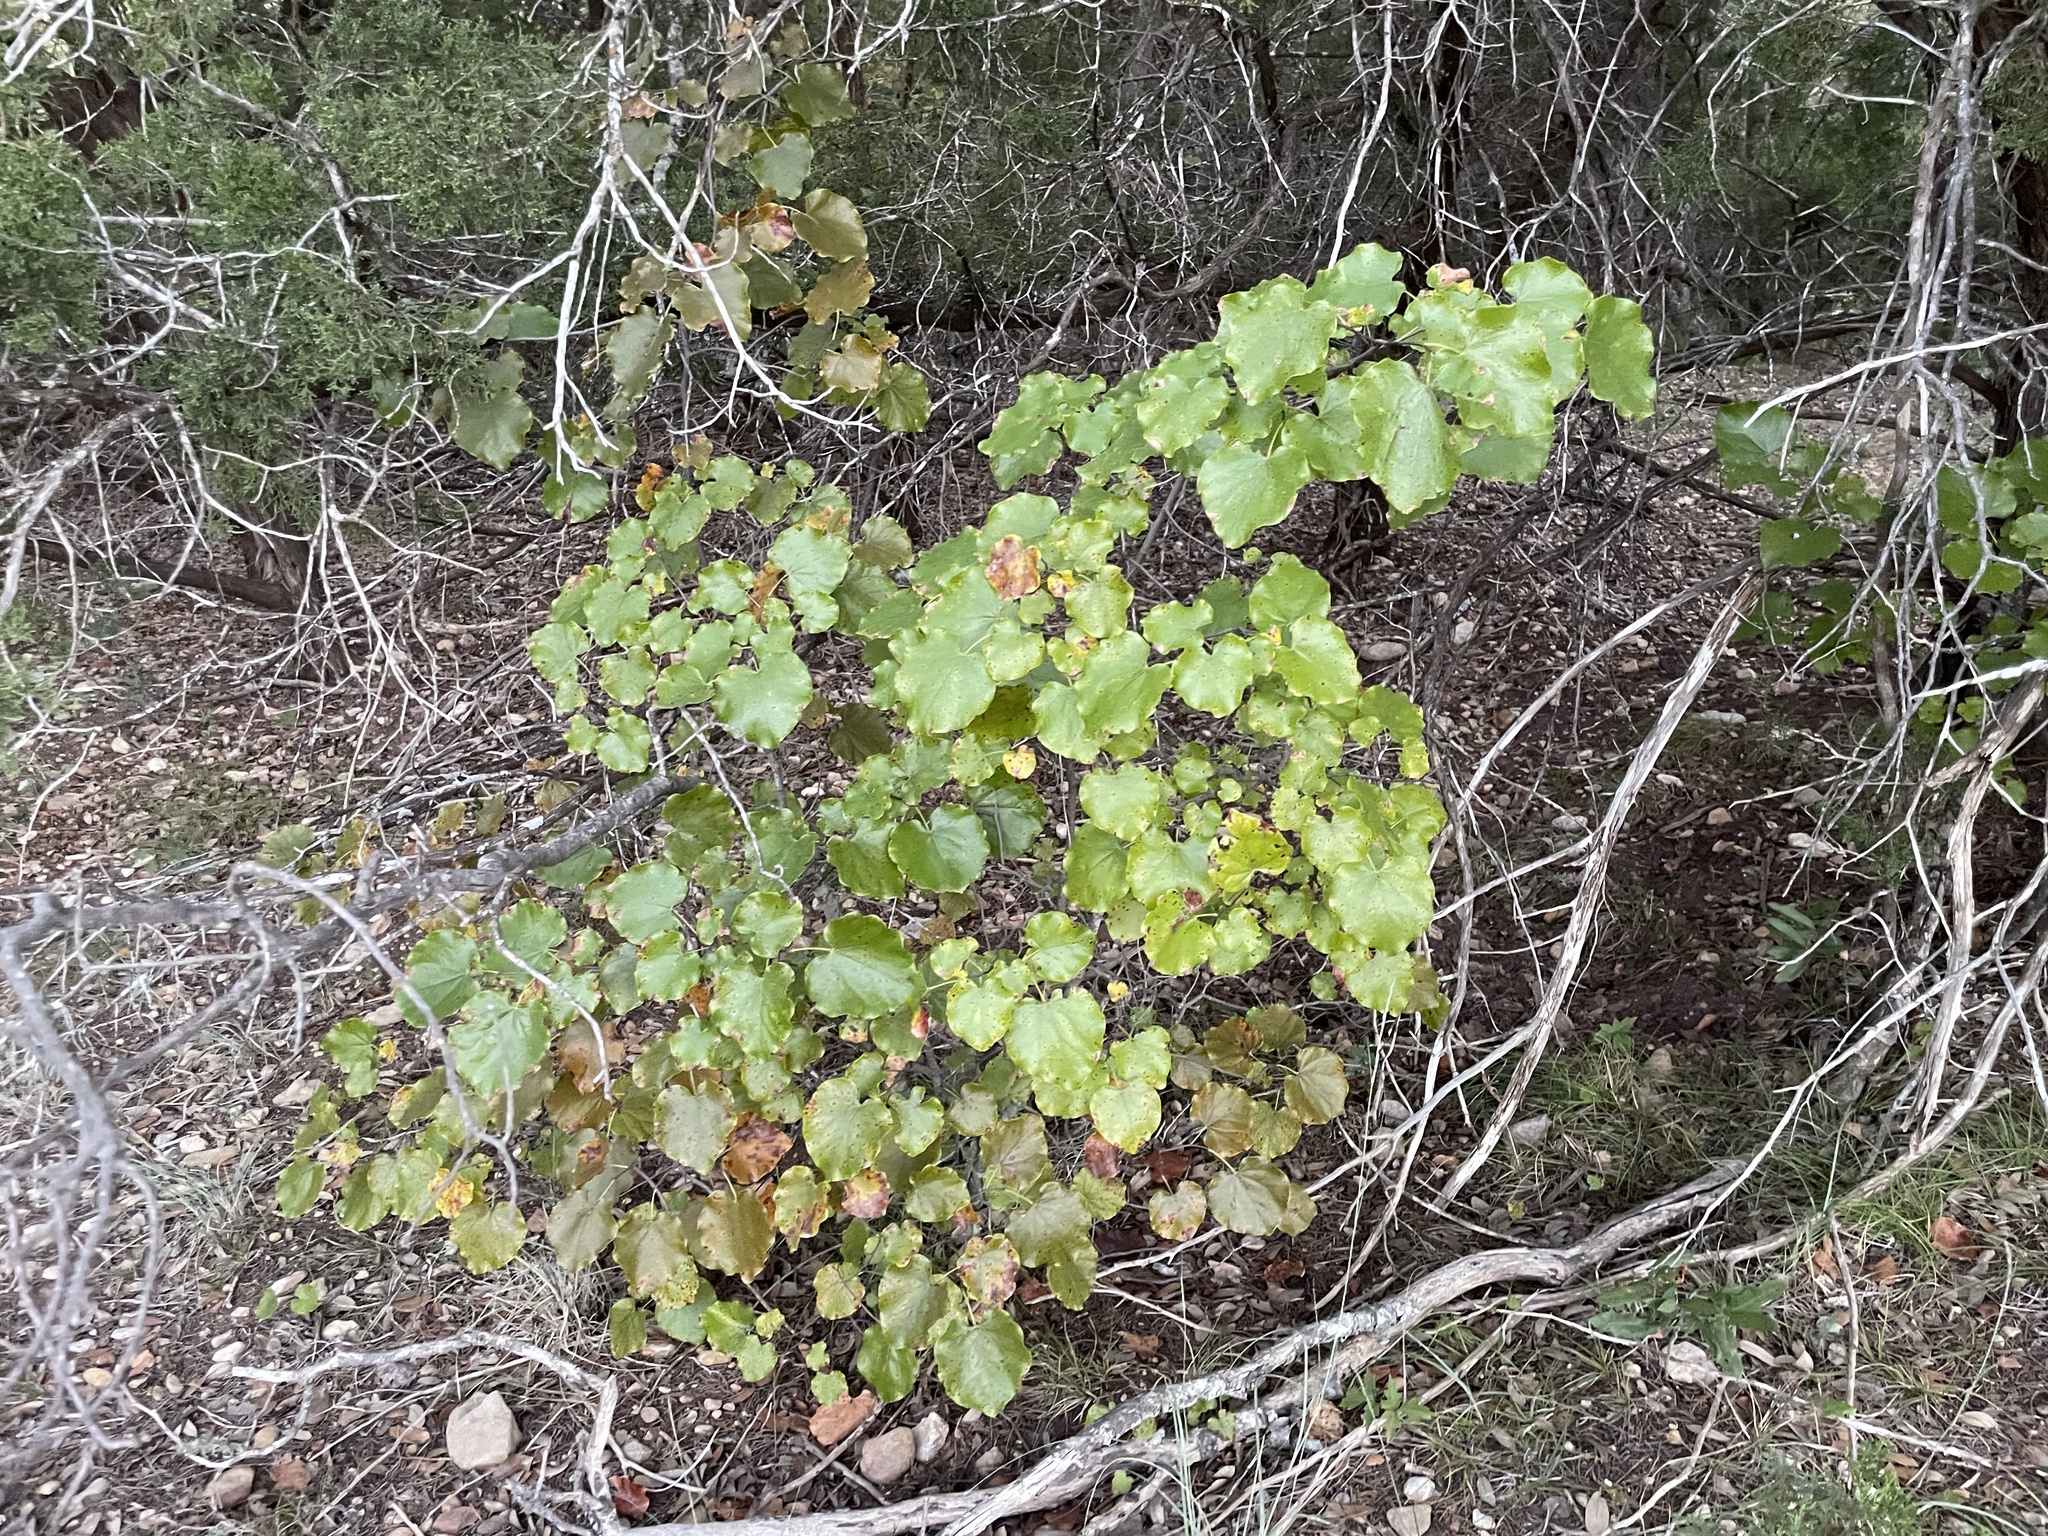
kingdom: Plantae
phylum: Tracheophyta
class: Magnoliopsida
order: Fabales
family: Fabaceae
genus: Cercis
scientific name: Cercis canadensis
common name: Eastern redbud
